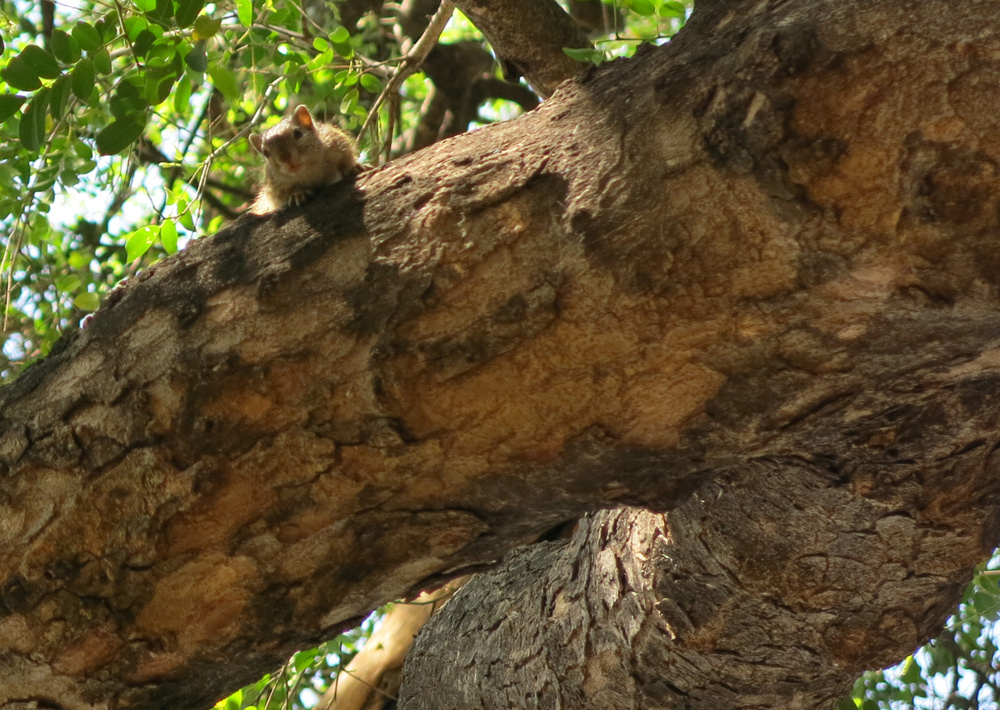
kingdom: Animalia
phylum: Chordata
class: Mammalia
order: Rodentia
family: Sciuridae
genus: Paraxerus
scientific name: Paraxerus cepapi
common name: Smith's bush squirrel
